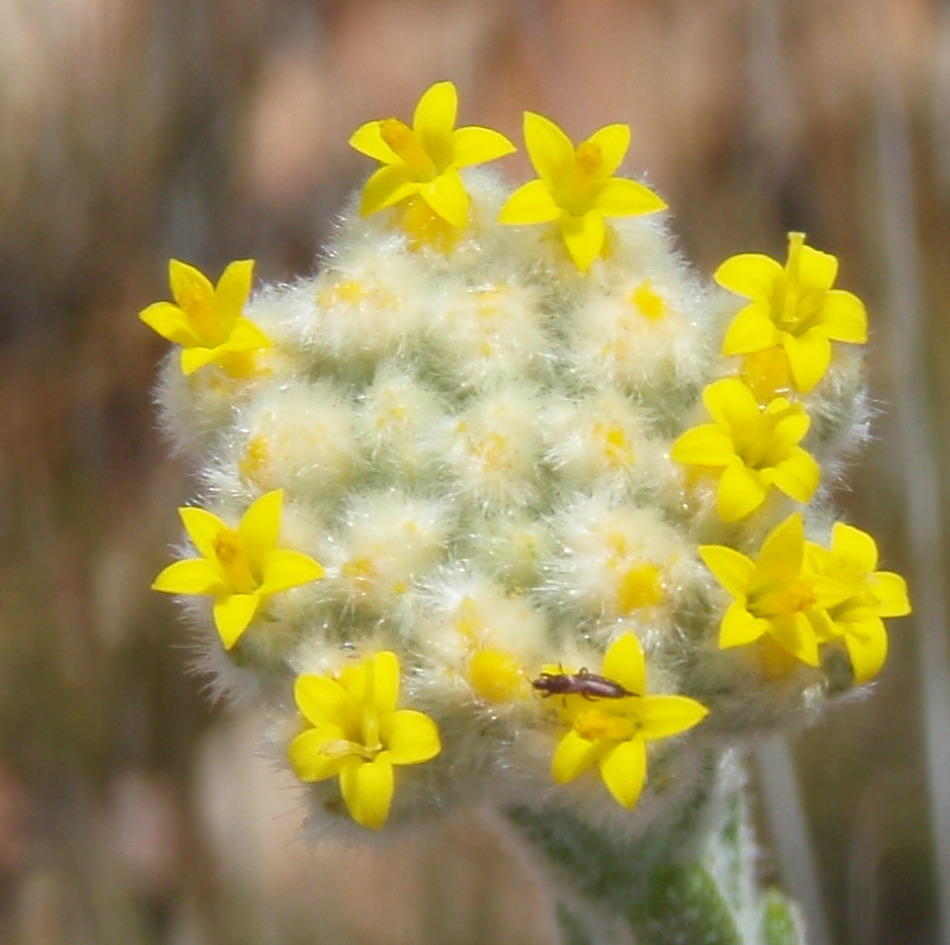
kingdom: Plantae
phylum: Tracheophyta
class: Magnoliopsida
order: Asterales
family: Asteraceae
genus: Athanasia
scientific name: Athanasia pachycephala
